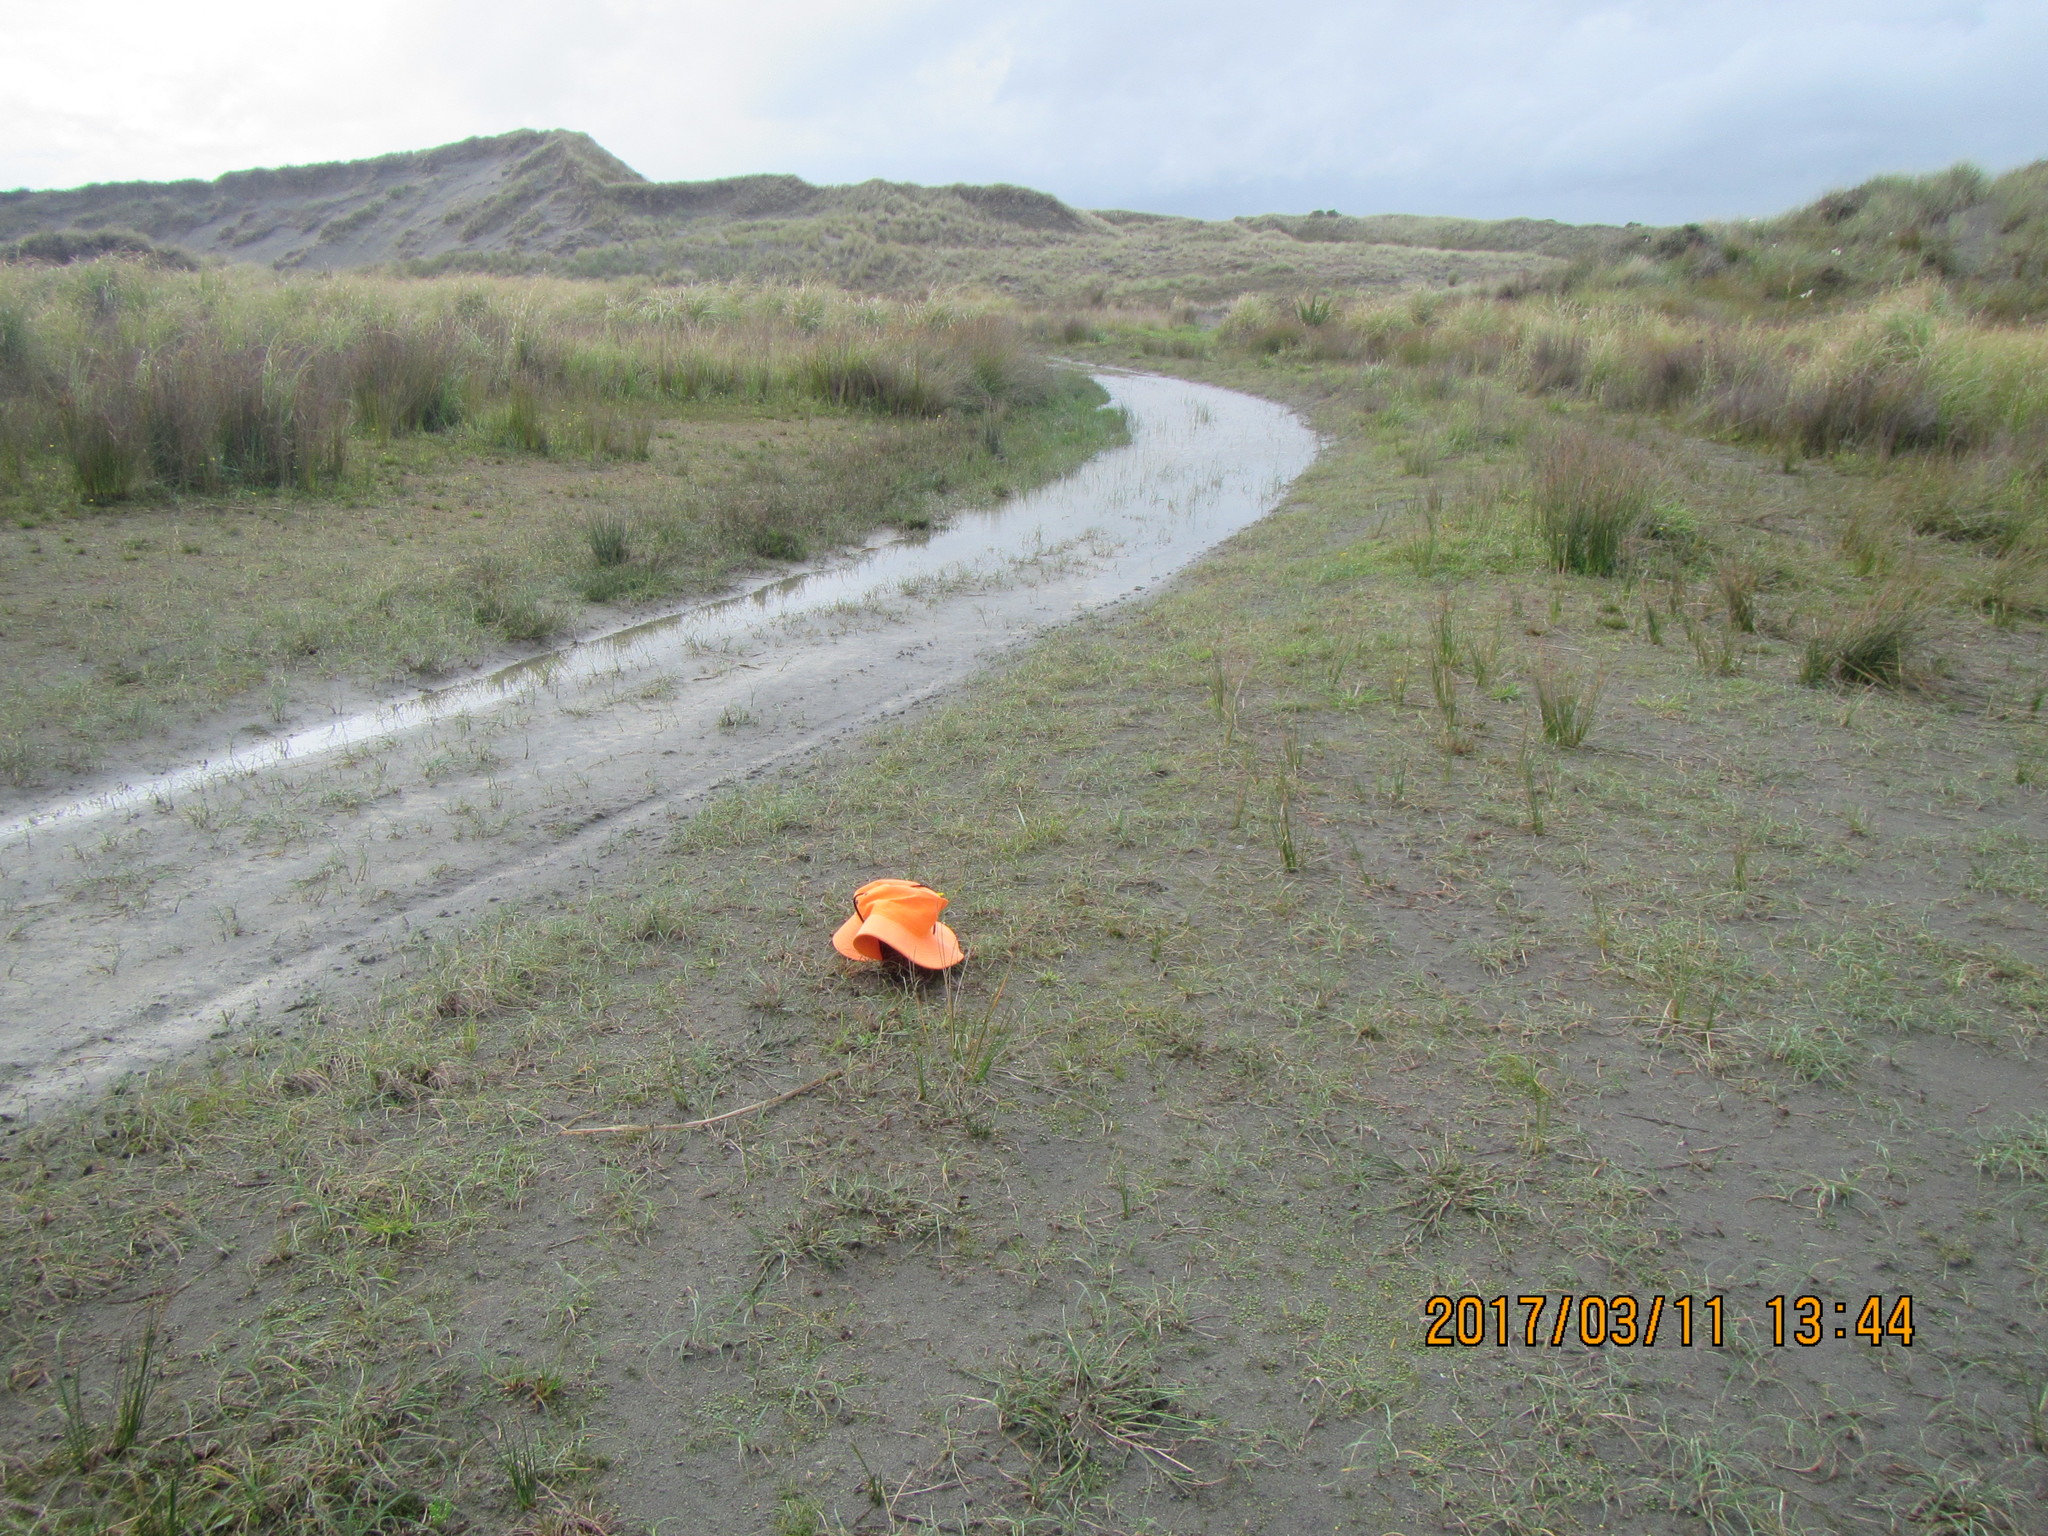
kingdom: Animalia
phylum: Arthropoda
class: Insecta
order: Diptera
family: Syrphidae
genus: Melanostoma
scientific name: Melanostoma fasciatum
